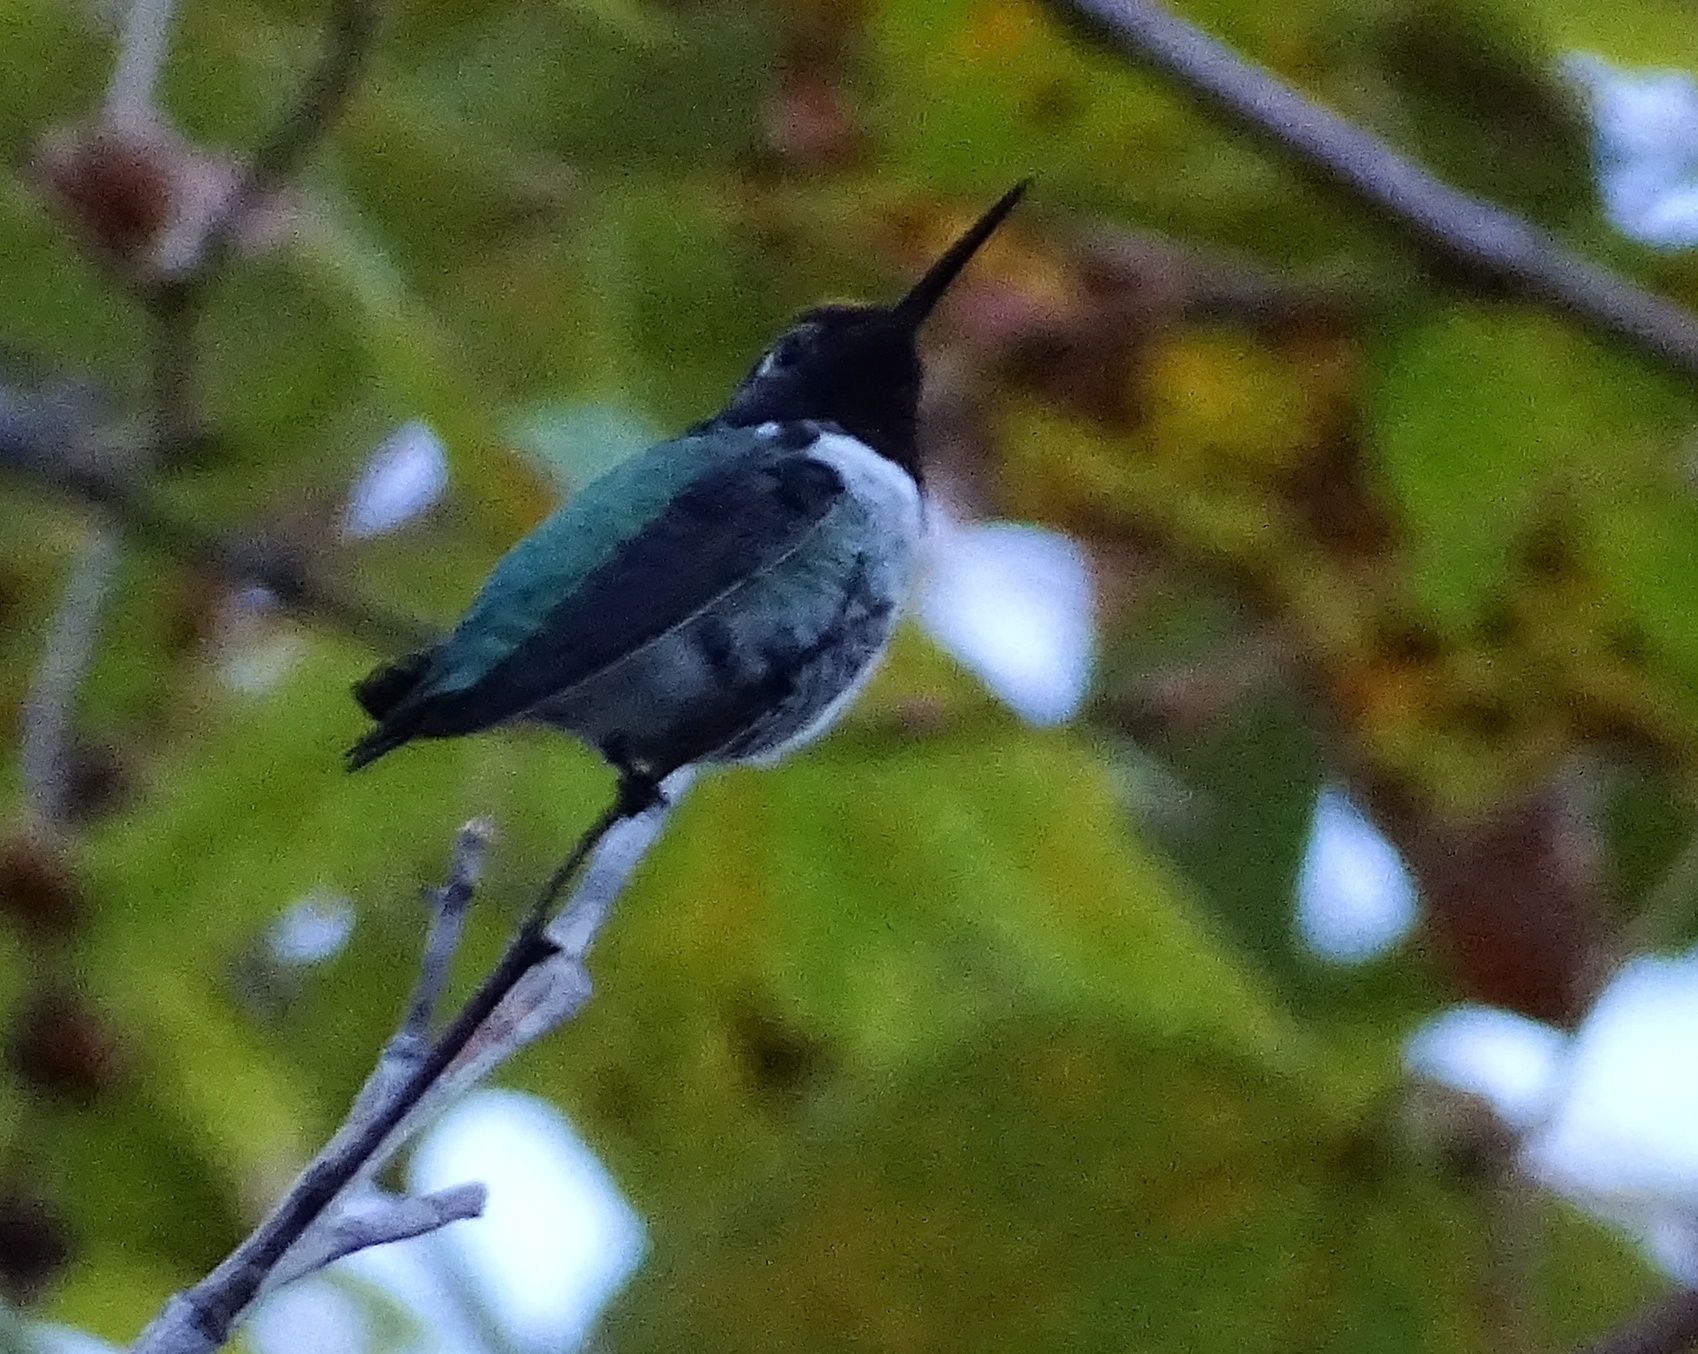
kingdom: Animalia
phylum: Chordata
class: Aves
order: Apodiformes
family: Trochilidae
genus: Calypte
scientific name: Calypte anna
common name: Anna's hummingbird
